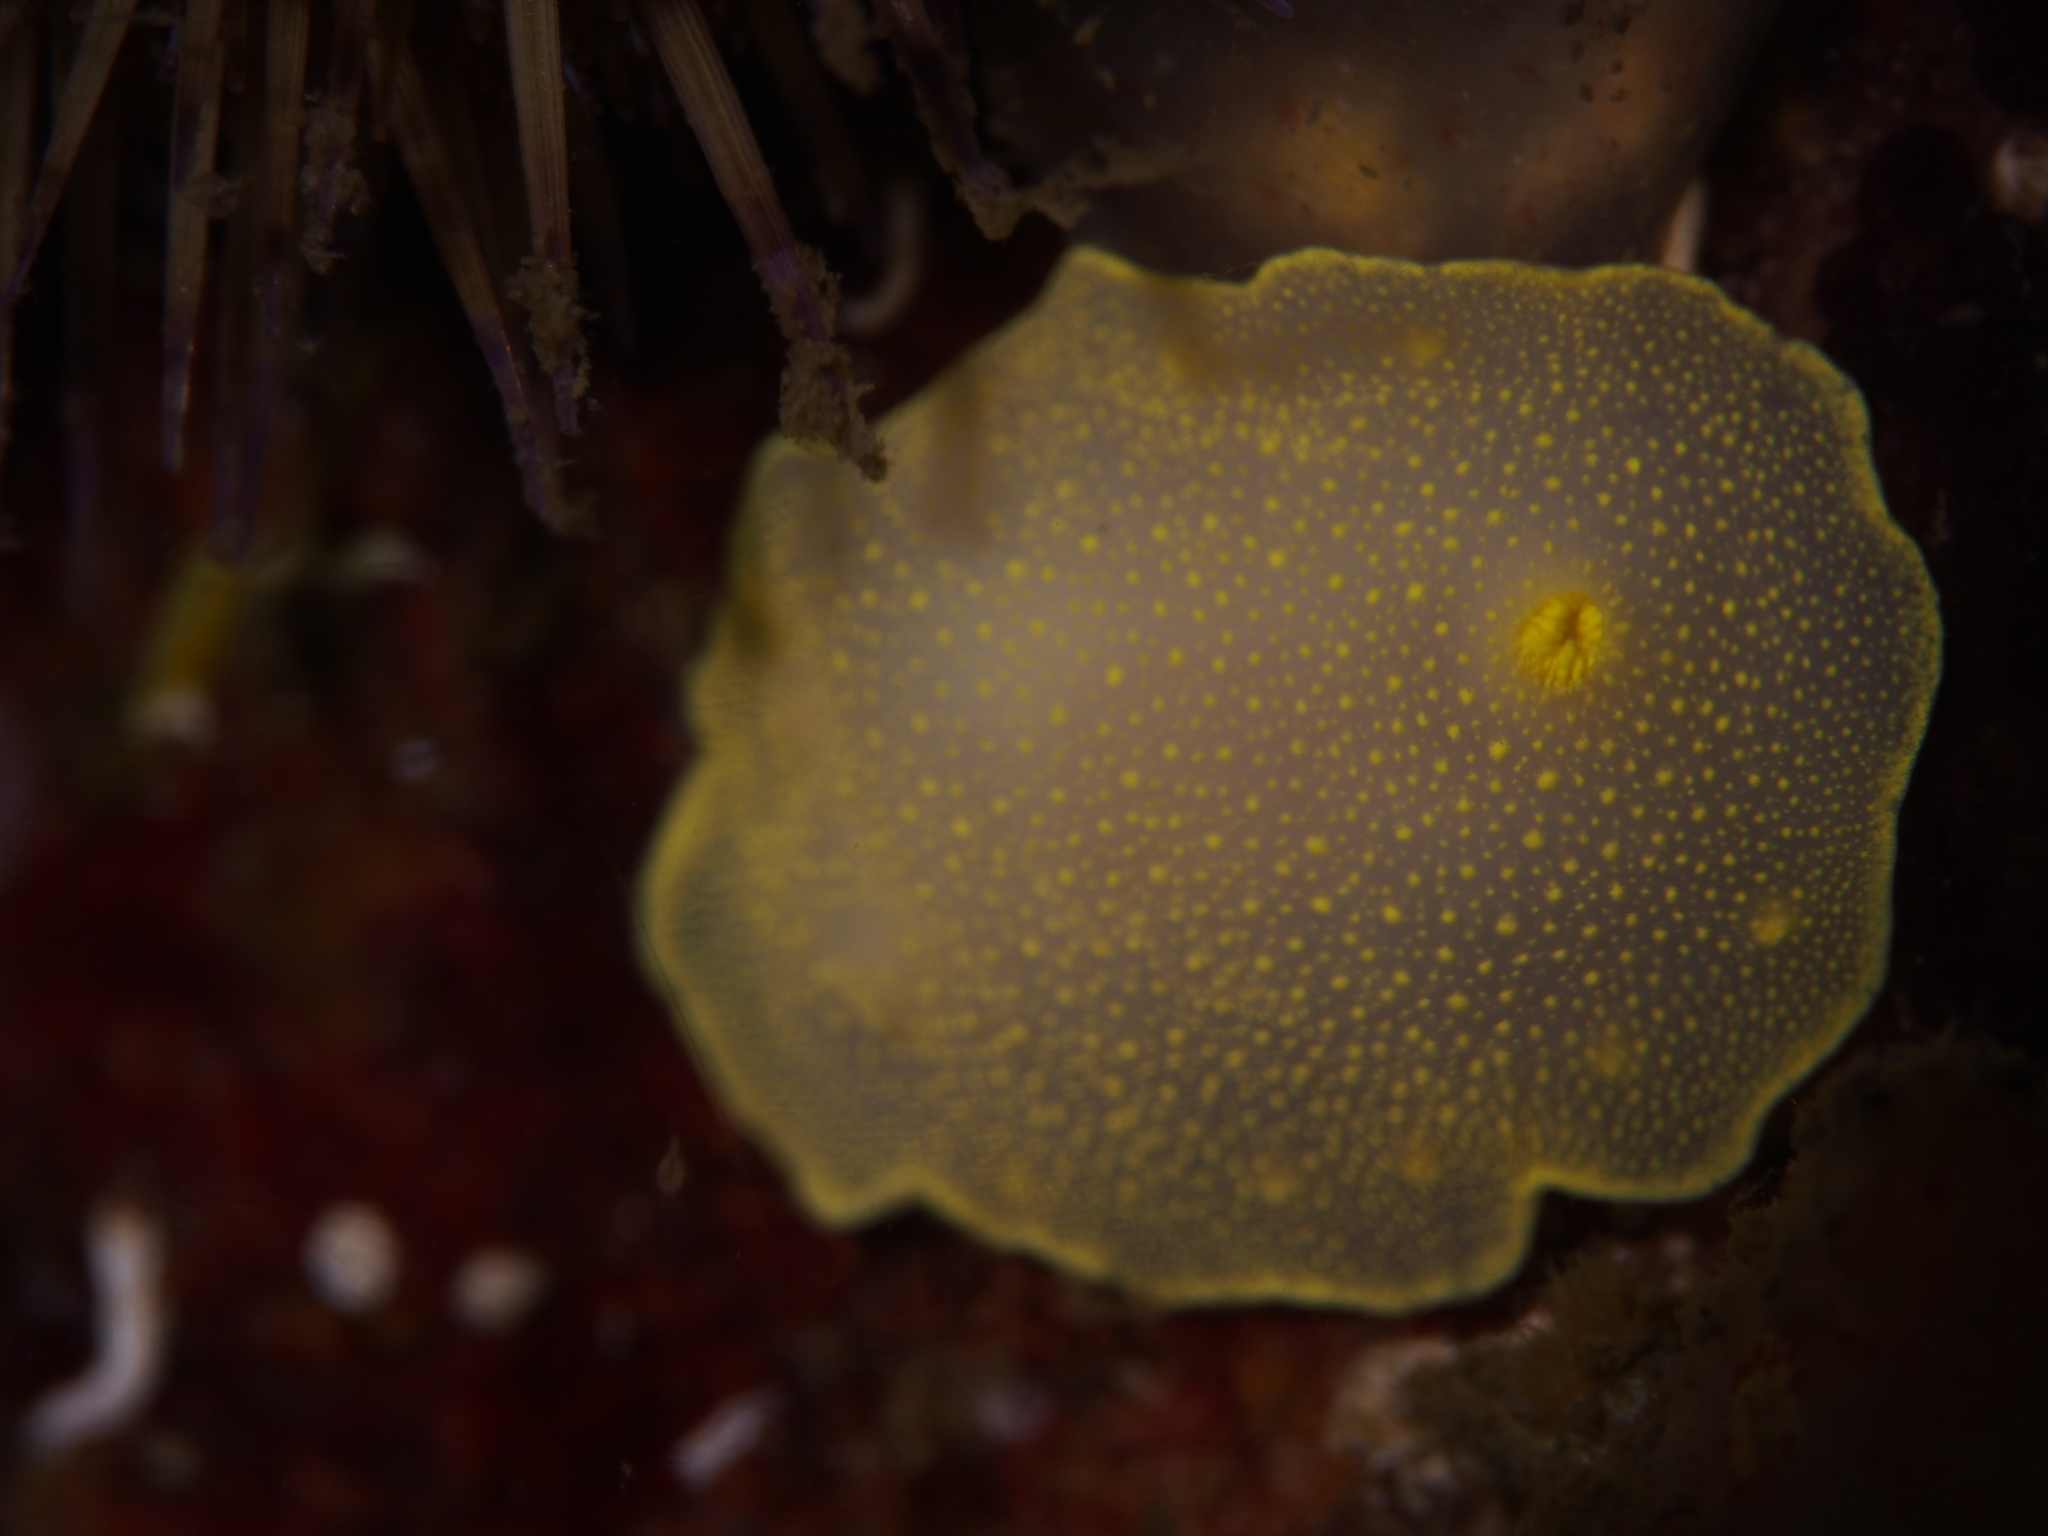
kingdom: Animalia
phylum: Mollusca
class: Gastropoda
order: Nudibranchia
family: Cadlinidae
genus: Cadlina
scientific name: Cadlina laevis
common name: White atlantic cadlina
